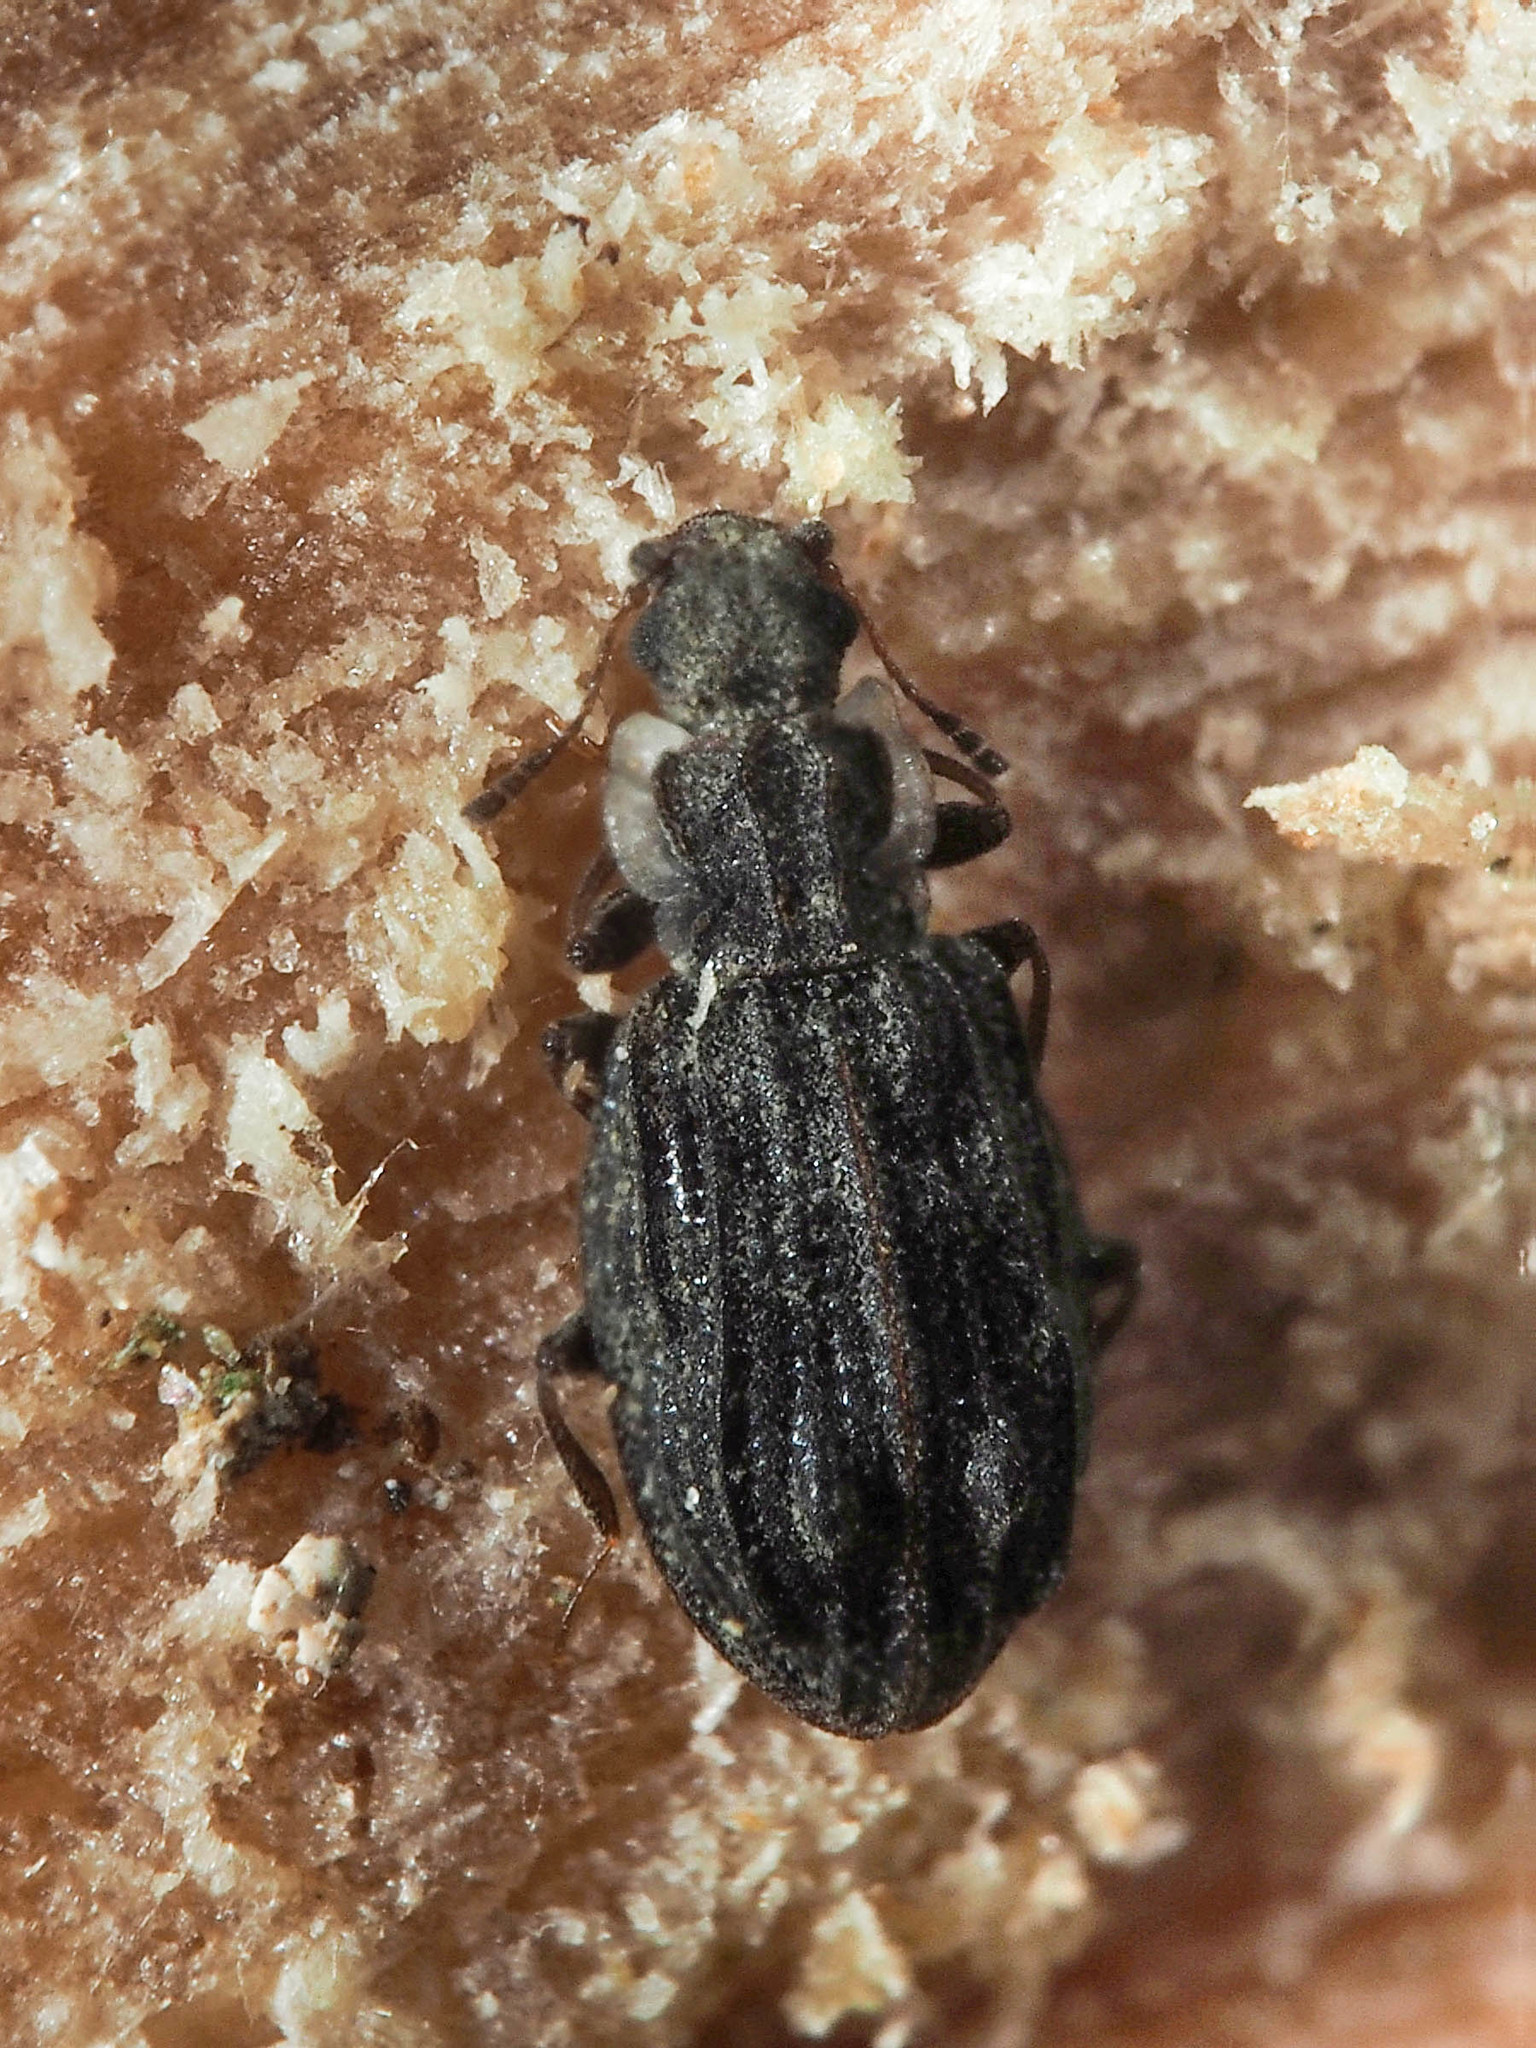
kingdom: Animalia
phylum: Arthropoda
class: Insecta
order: Coleoptera
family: Latridiidae
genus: Cartodere
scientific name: Cartodere nodifer
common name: Humpbacked minute scavenger beetle
